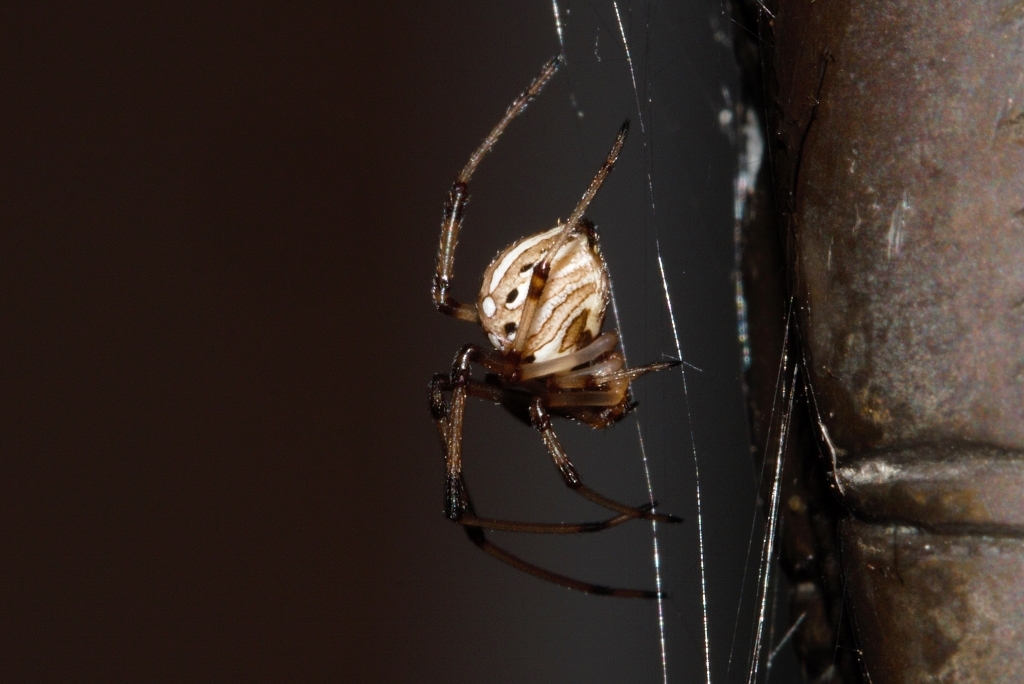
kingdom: Animalia
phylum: Arthropoda
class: Arachnida
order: Araneae
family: Theridiidae
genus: Latrodectus
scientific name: Latrodectus geometricus
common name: Brown widow spider
